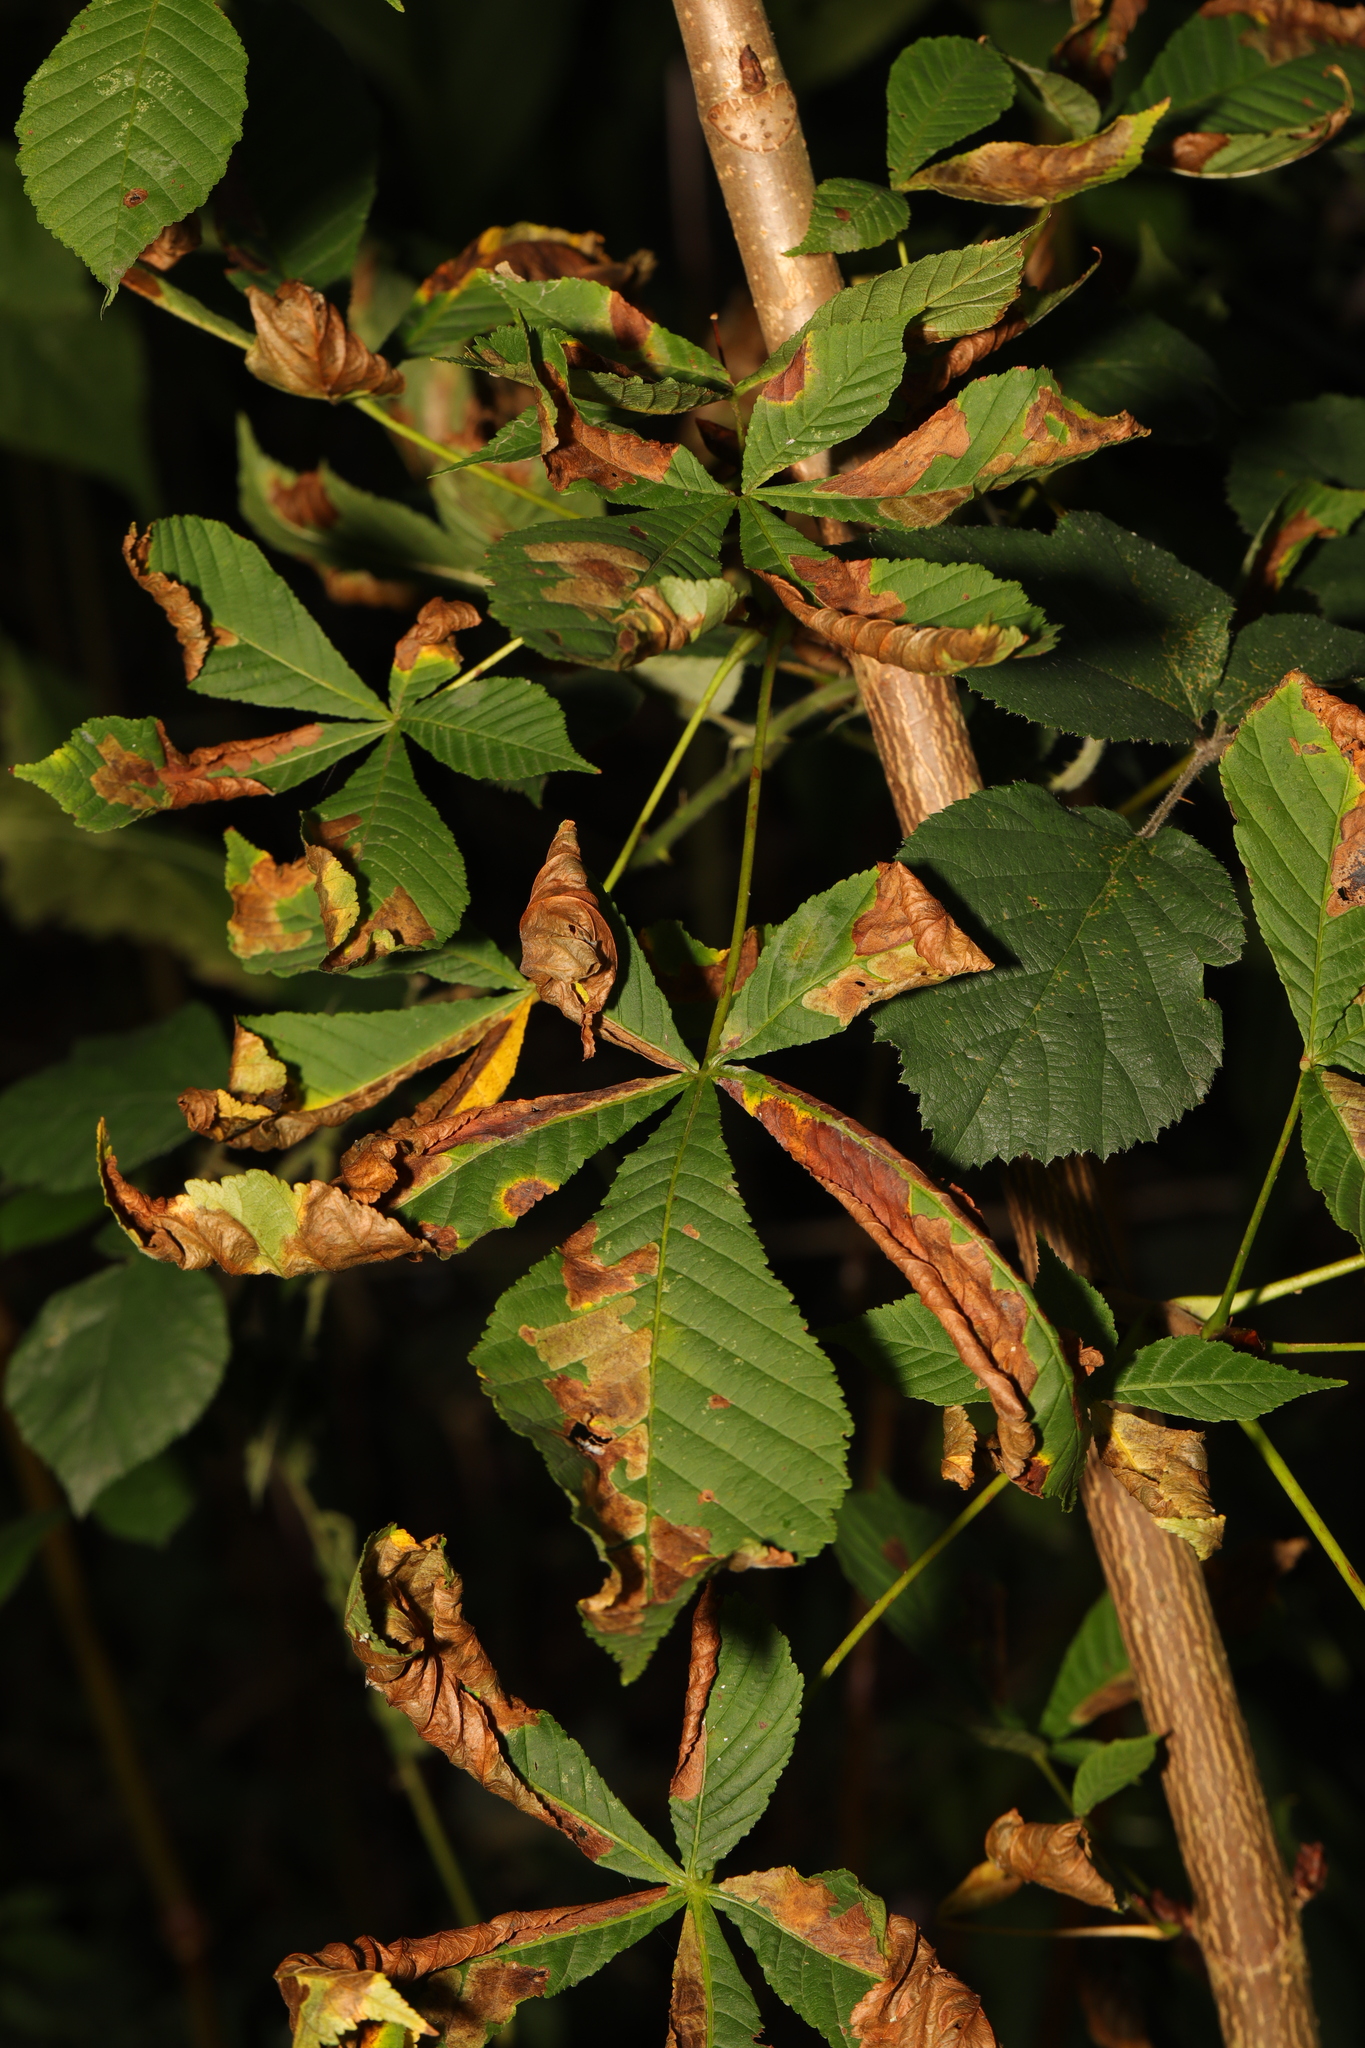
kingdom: Plantae
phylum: Tracheophyta
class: Magnoliopsida
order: Sapindales
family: Sapindaceae
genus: Aesculus
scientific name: Aesculus hippocastanum
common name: Horse-chestnut
